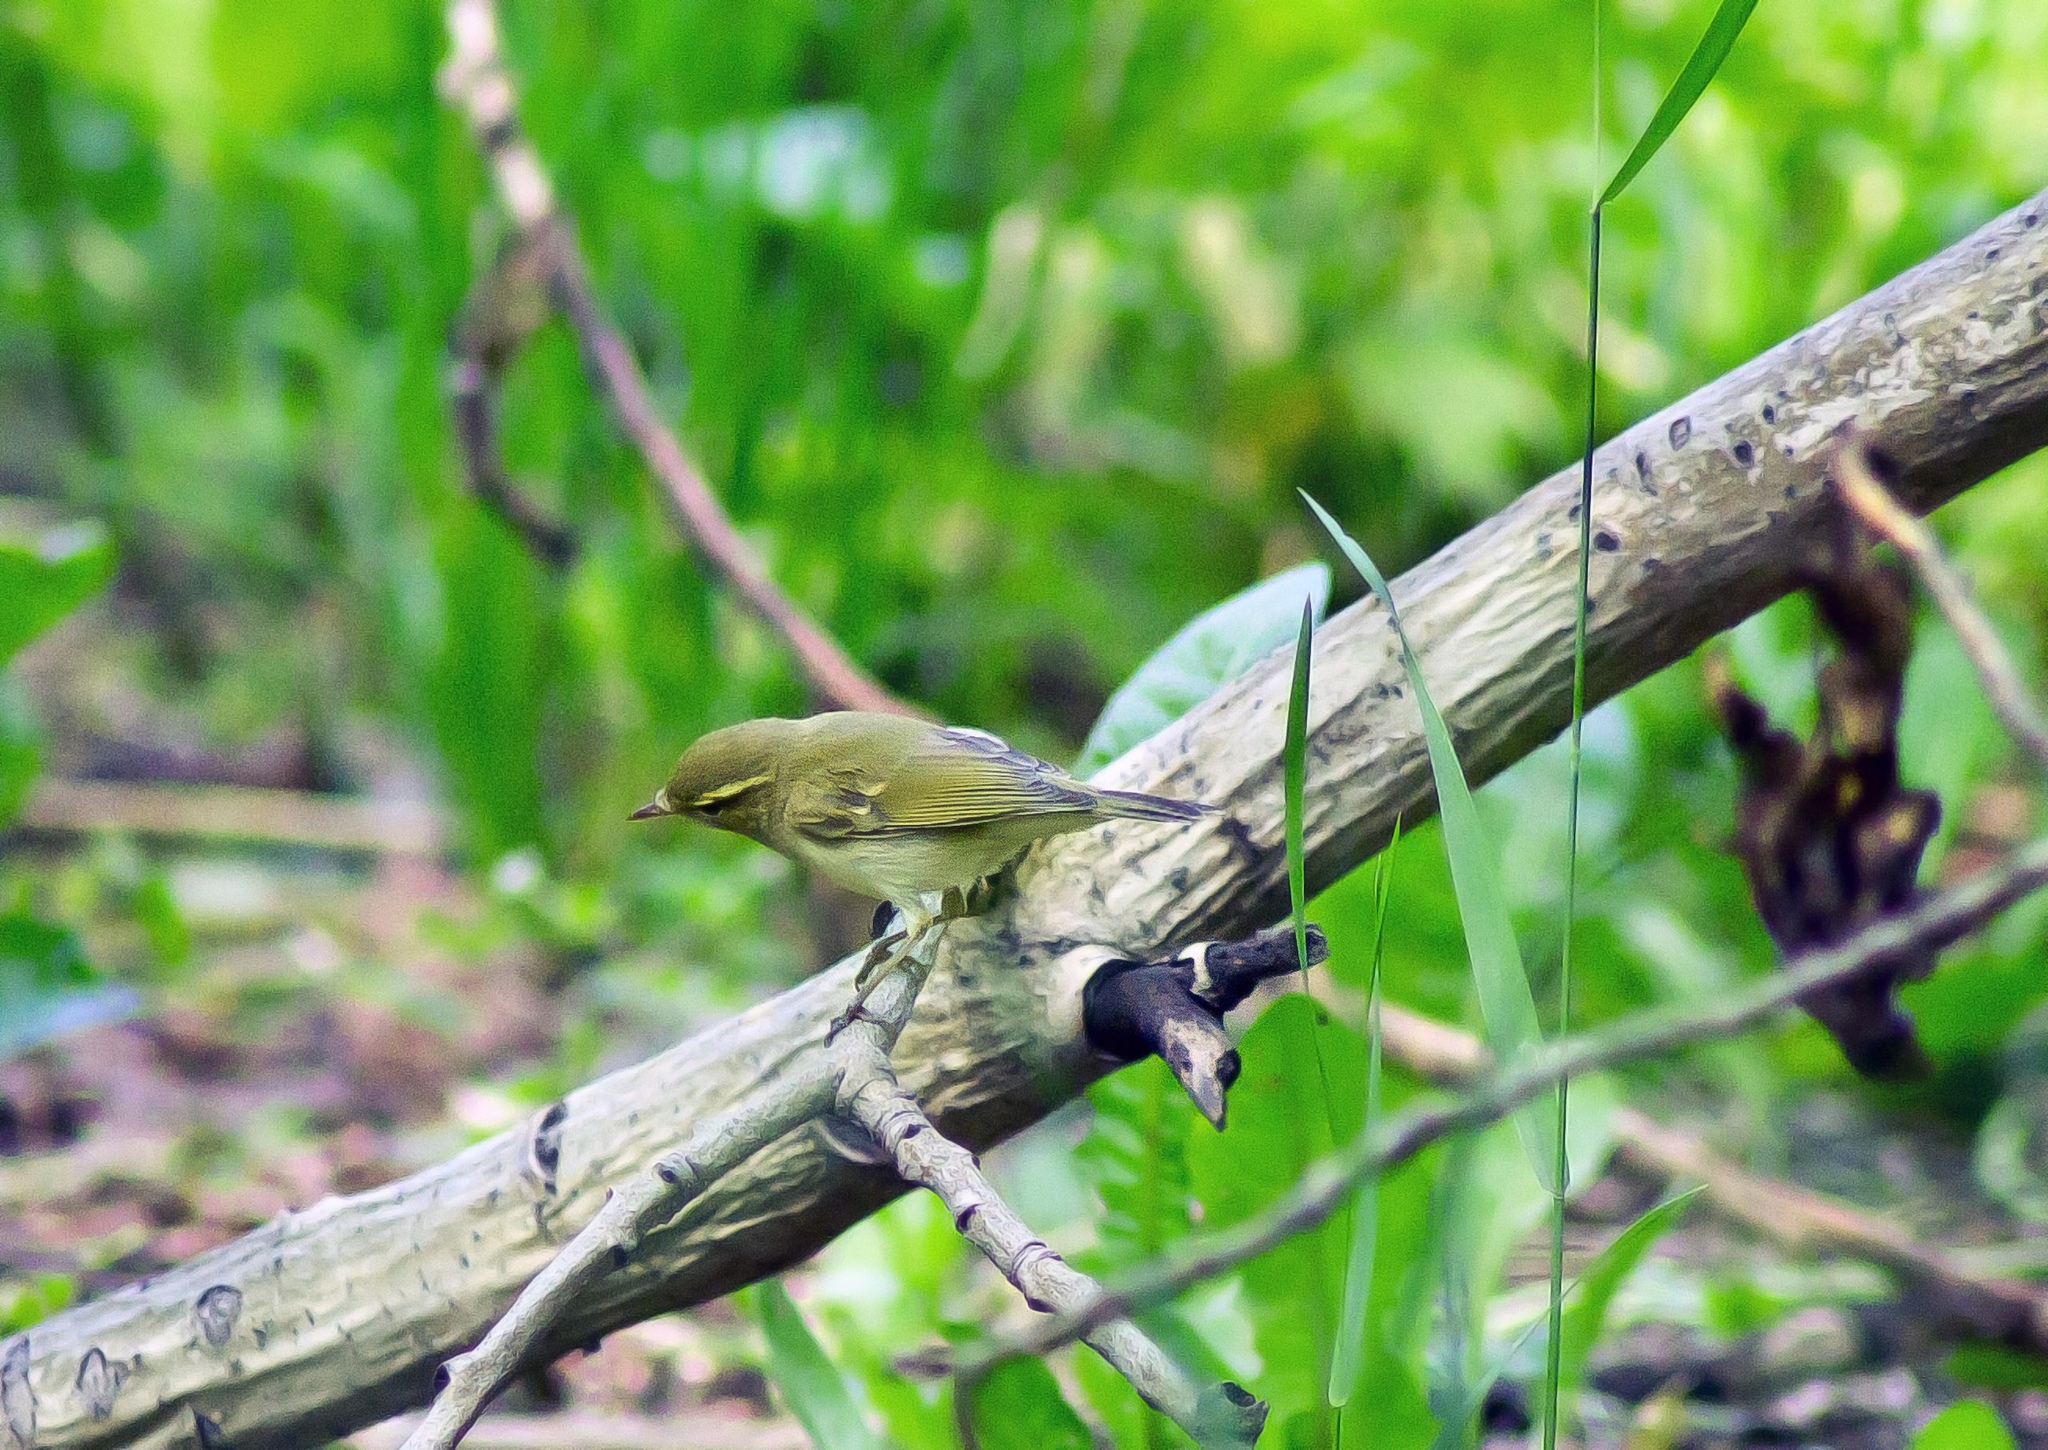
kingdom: Animalia
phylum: Chordata
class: Aves
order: Passeriformes
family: Phylloscopidae
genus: Phylloscopus
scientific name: Phylloscopus trochiloides
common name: Greenish warbler
